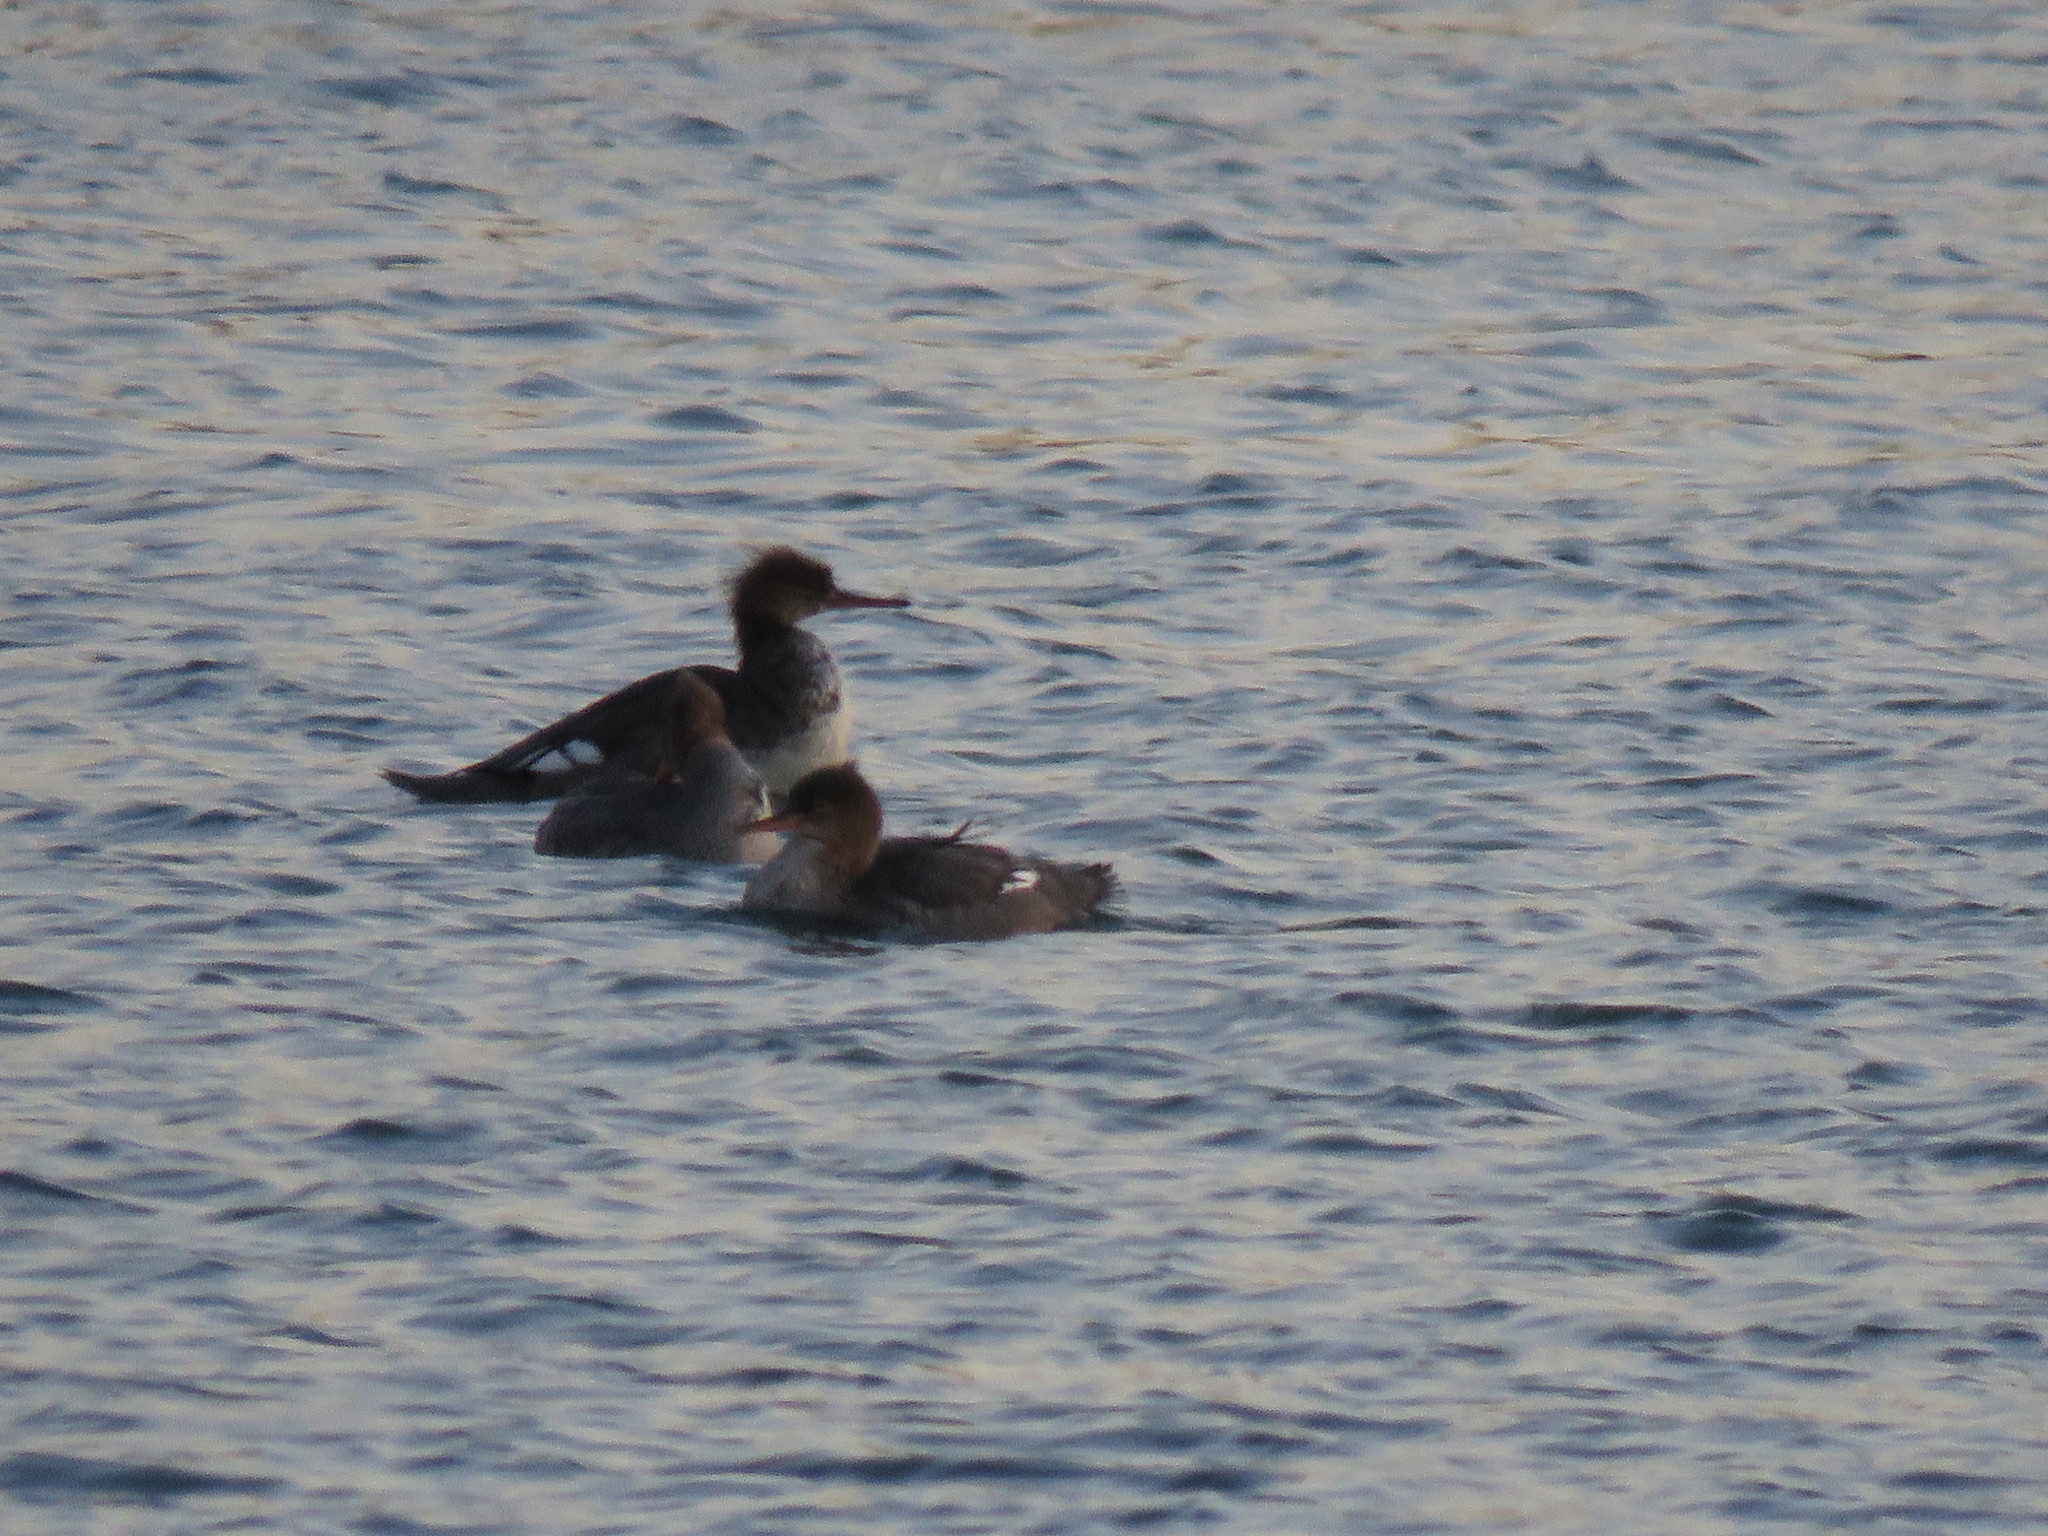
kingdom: Animalia
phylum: Chordata
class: Aves
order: Anseriformes
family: Anatidae
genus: Mergus
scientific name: Mergus serrator
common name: Red-breasted merganser
